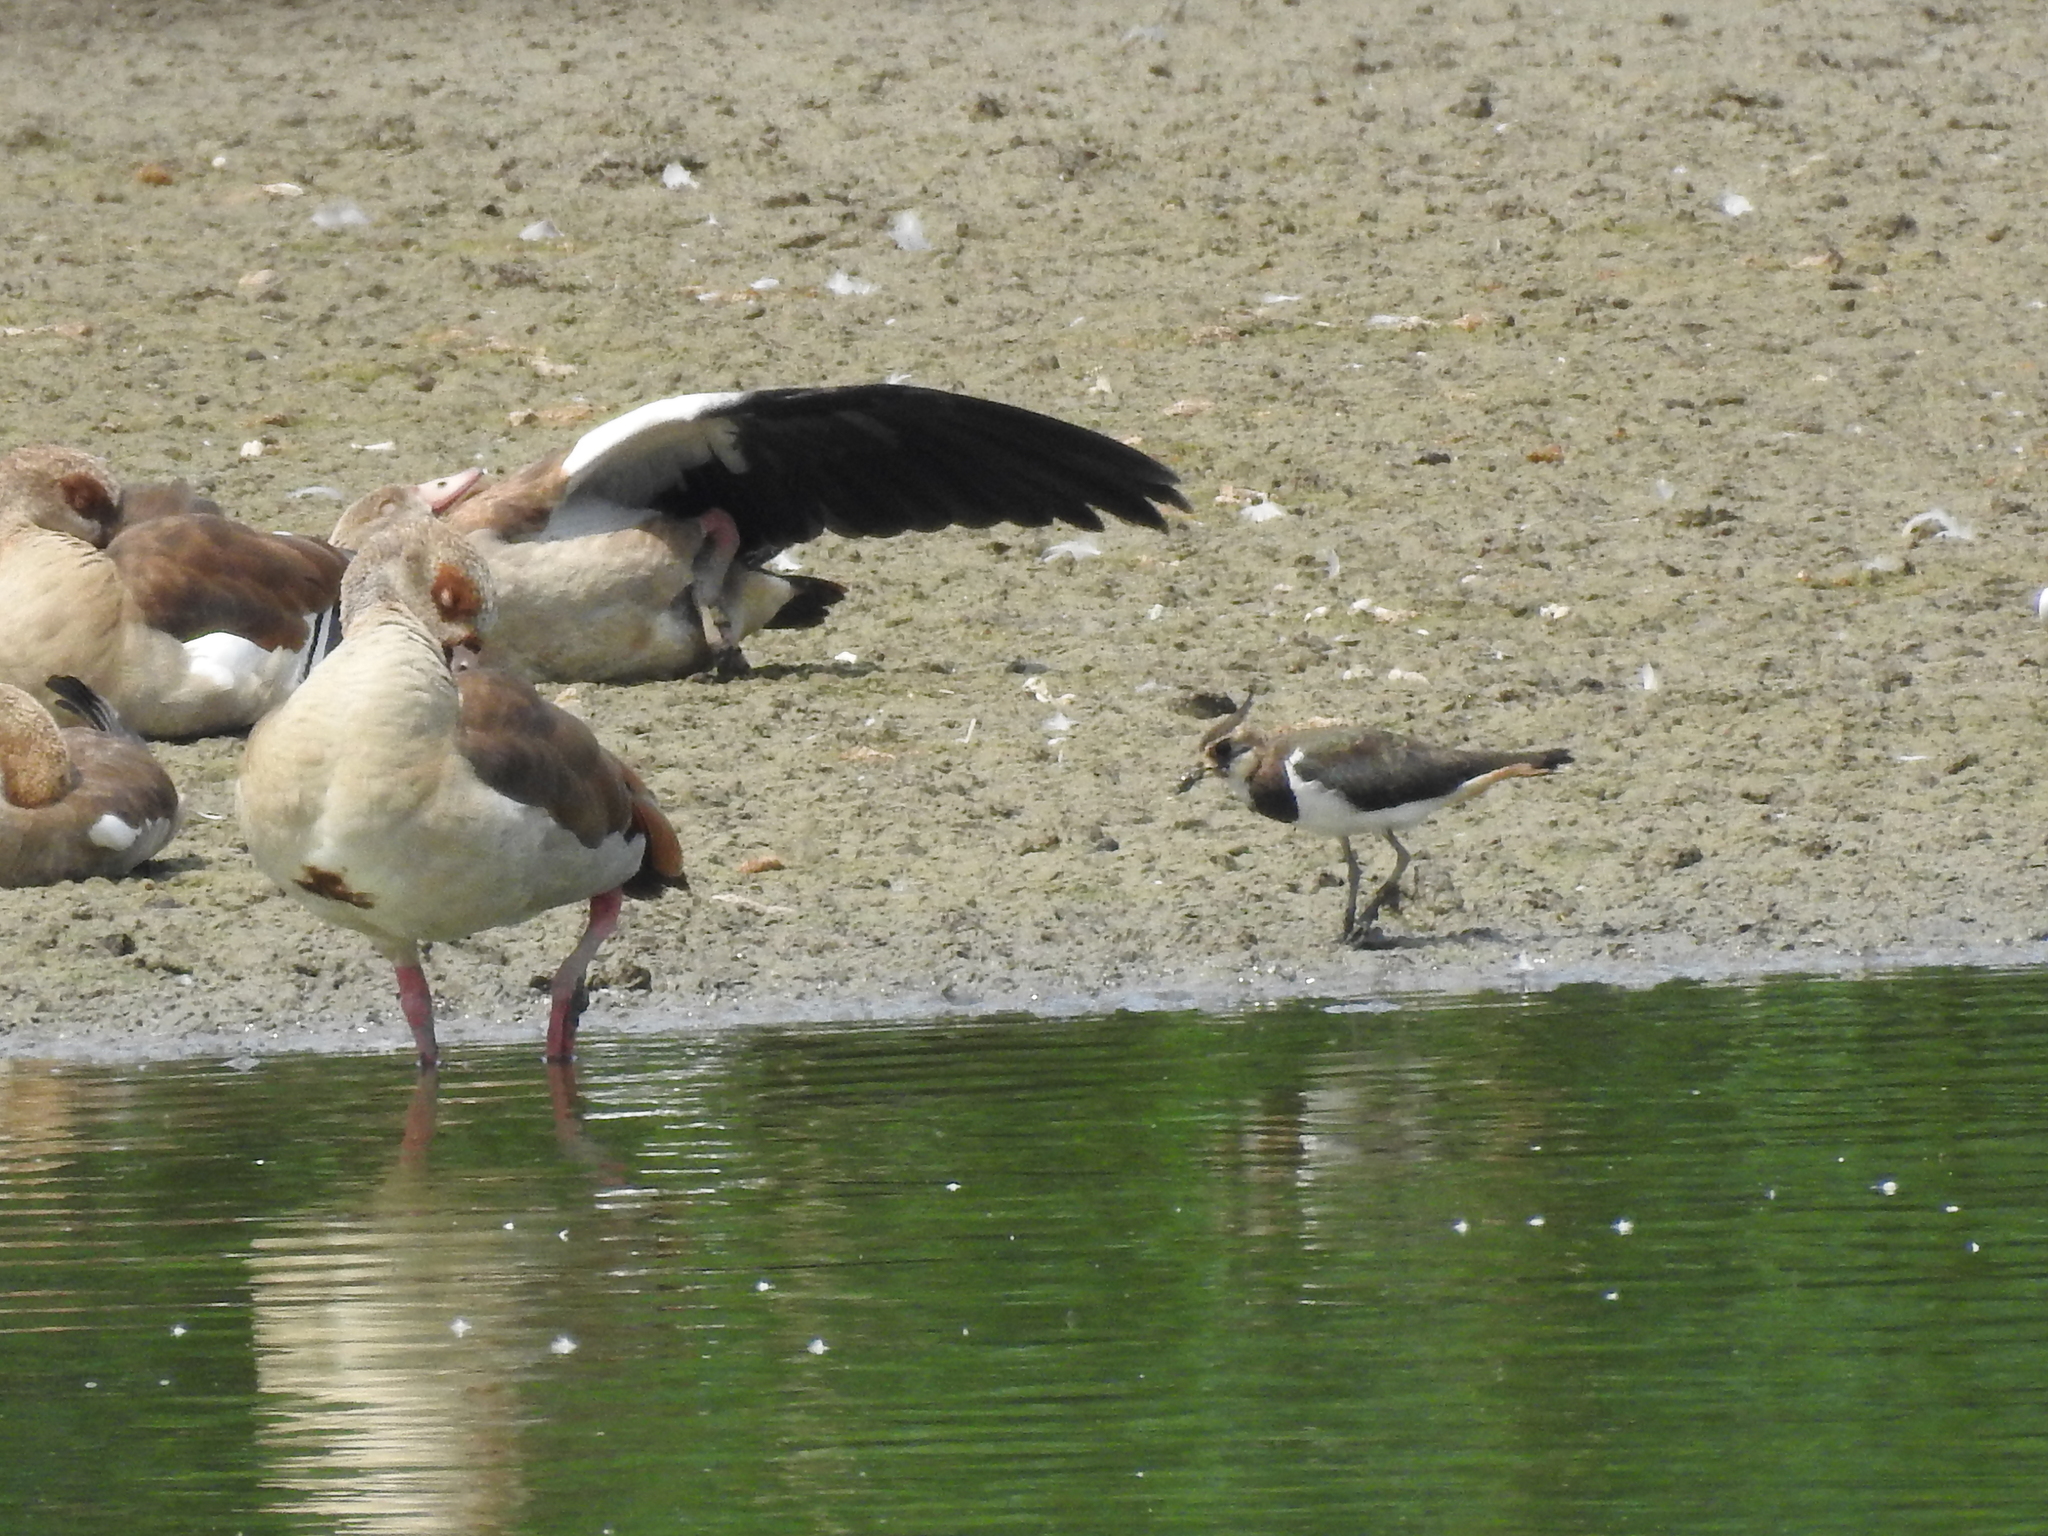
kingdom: Animalia
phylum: Chordata
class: Aves
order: Charadriiformes
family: Charadriidae
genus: Vanellus
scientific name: Vanellus vanellus
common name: Northern lapwing
